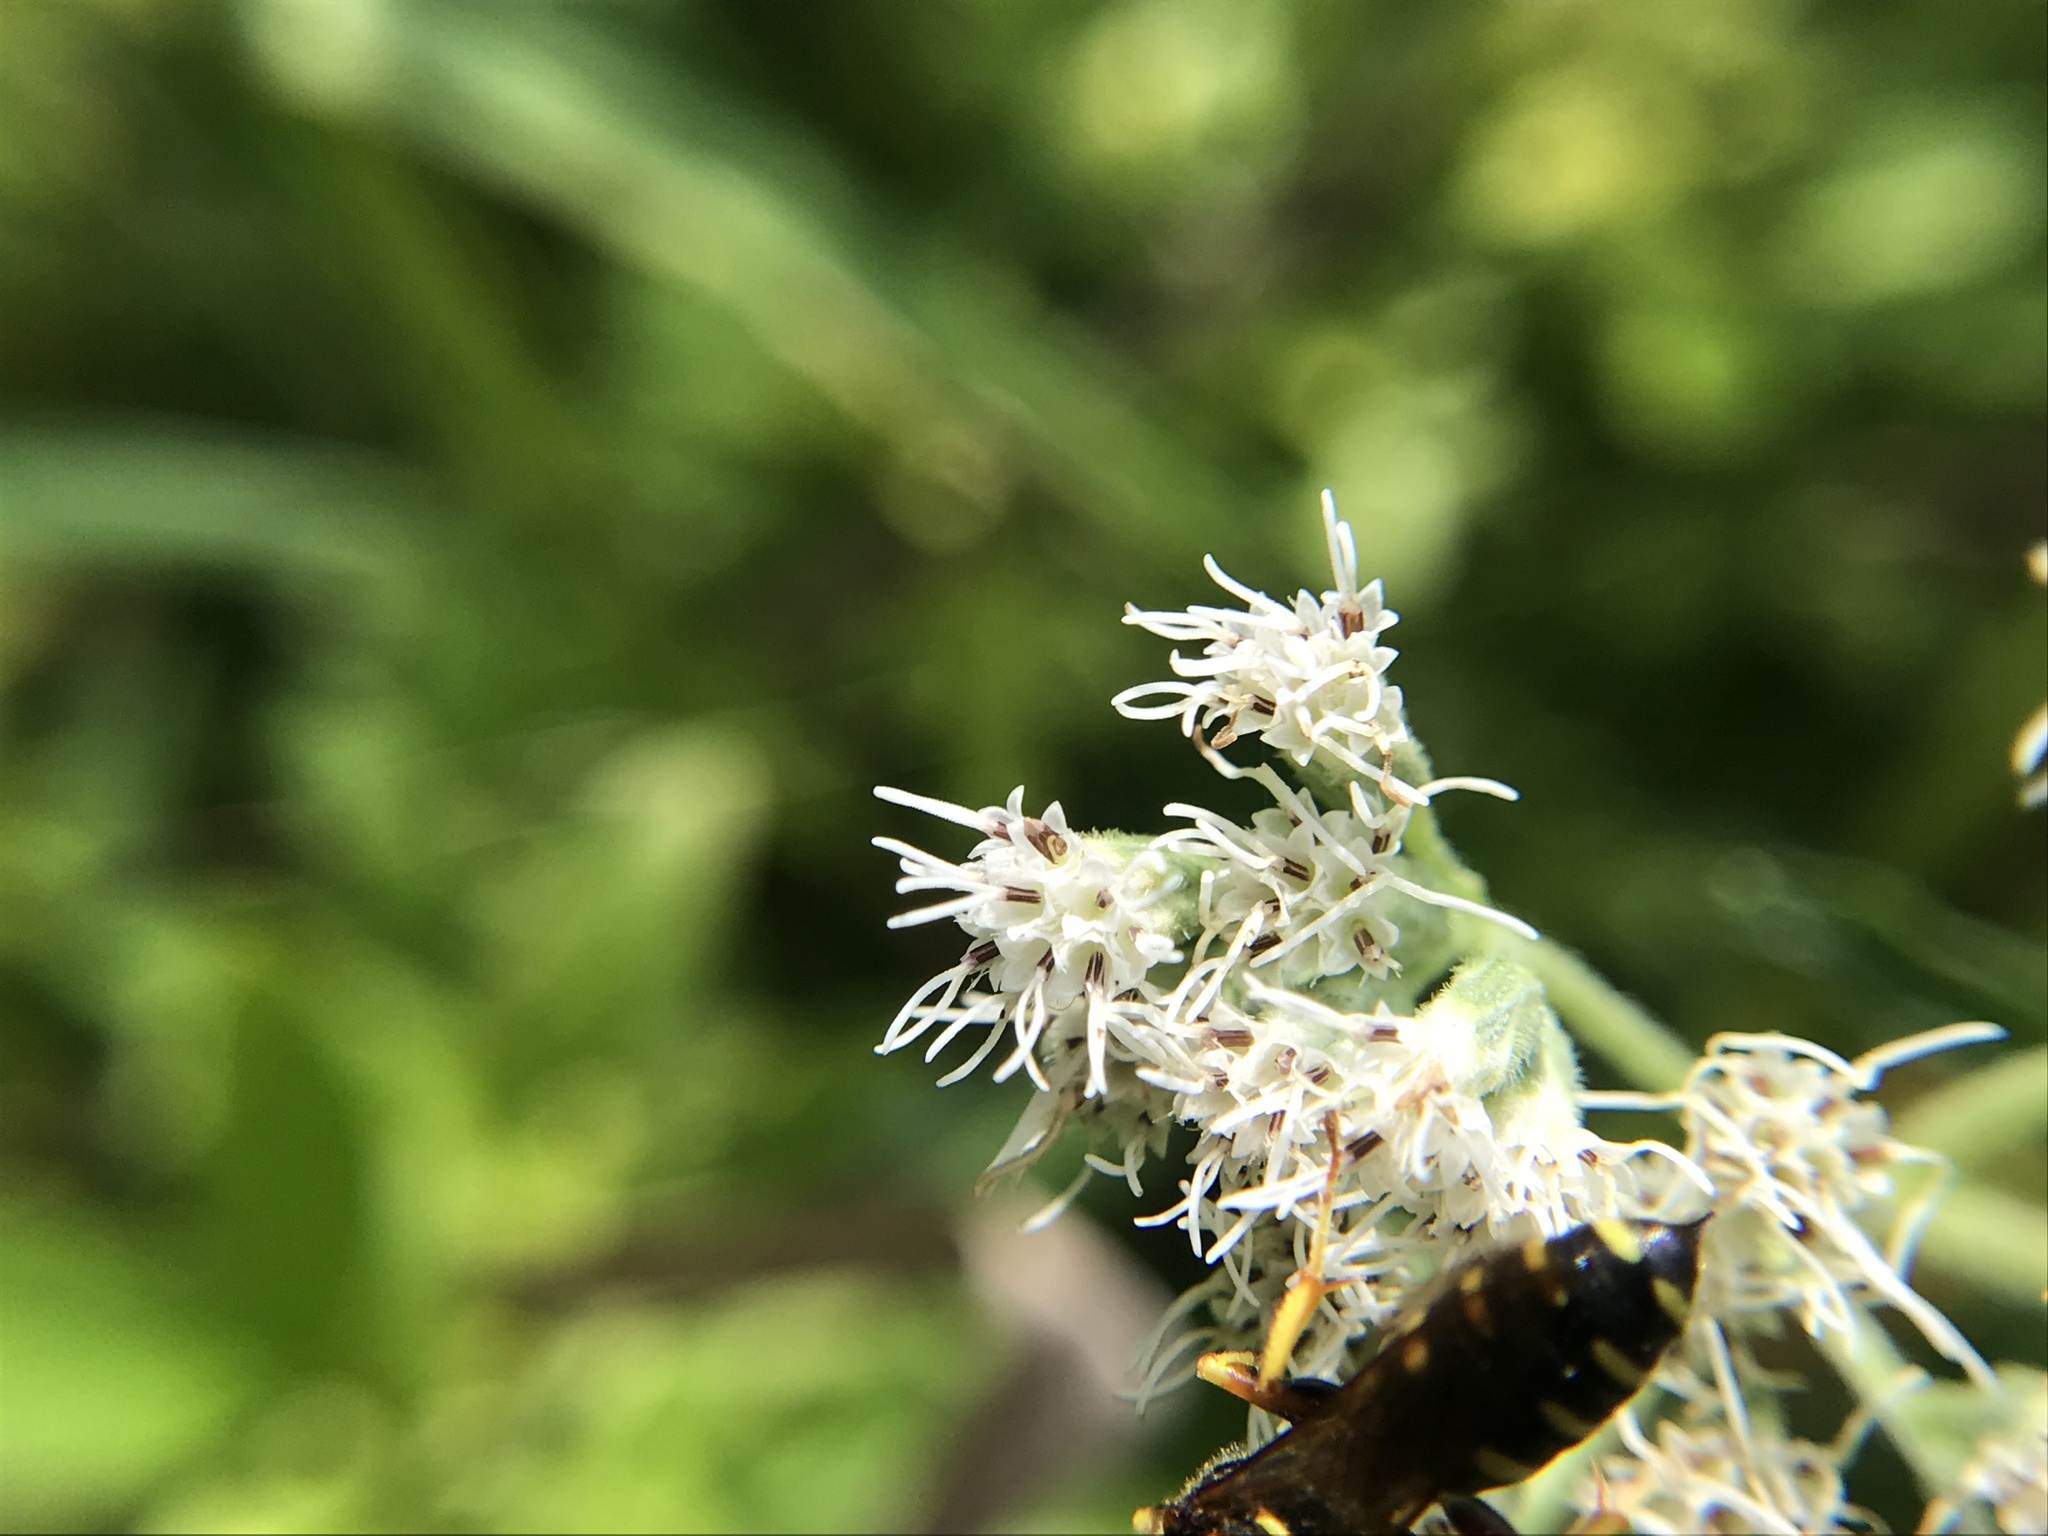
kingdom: Animalia
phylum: Arthropoda
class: Insecta
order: Hymenoptera
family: Crabronidae
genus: Ectemnius
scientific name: Ectemnius decemmaculatus
